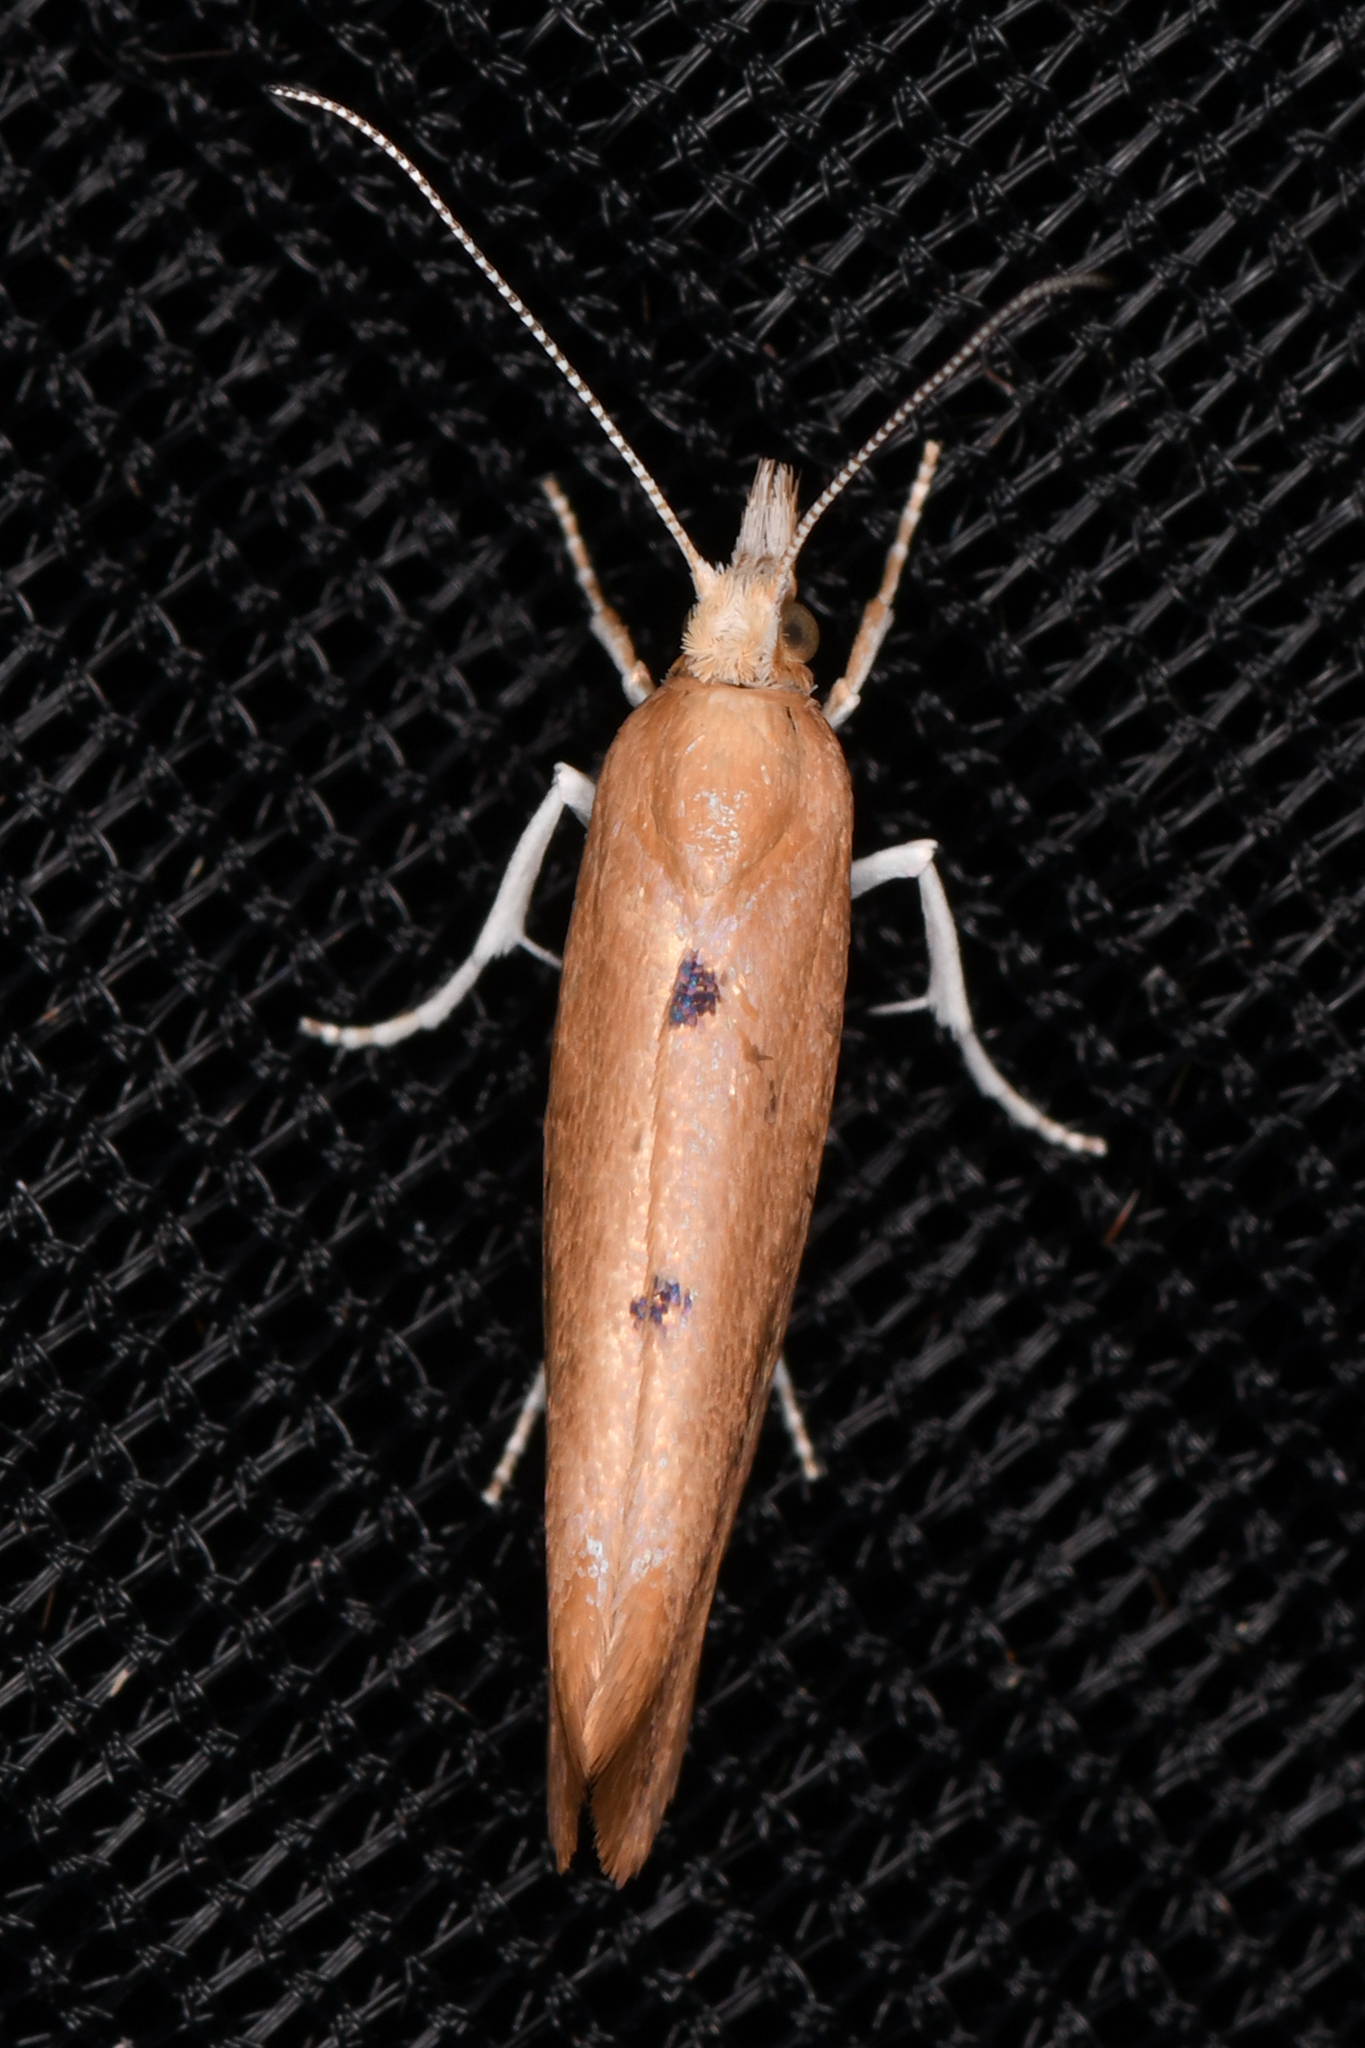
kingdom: Animalia
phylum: Arthropoda
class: Insecta
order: Lepidoptera
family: Ypsolophidae
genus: Ypsolopha
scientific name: Ypsolopha cervella
